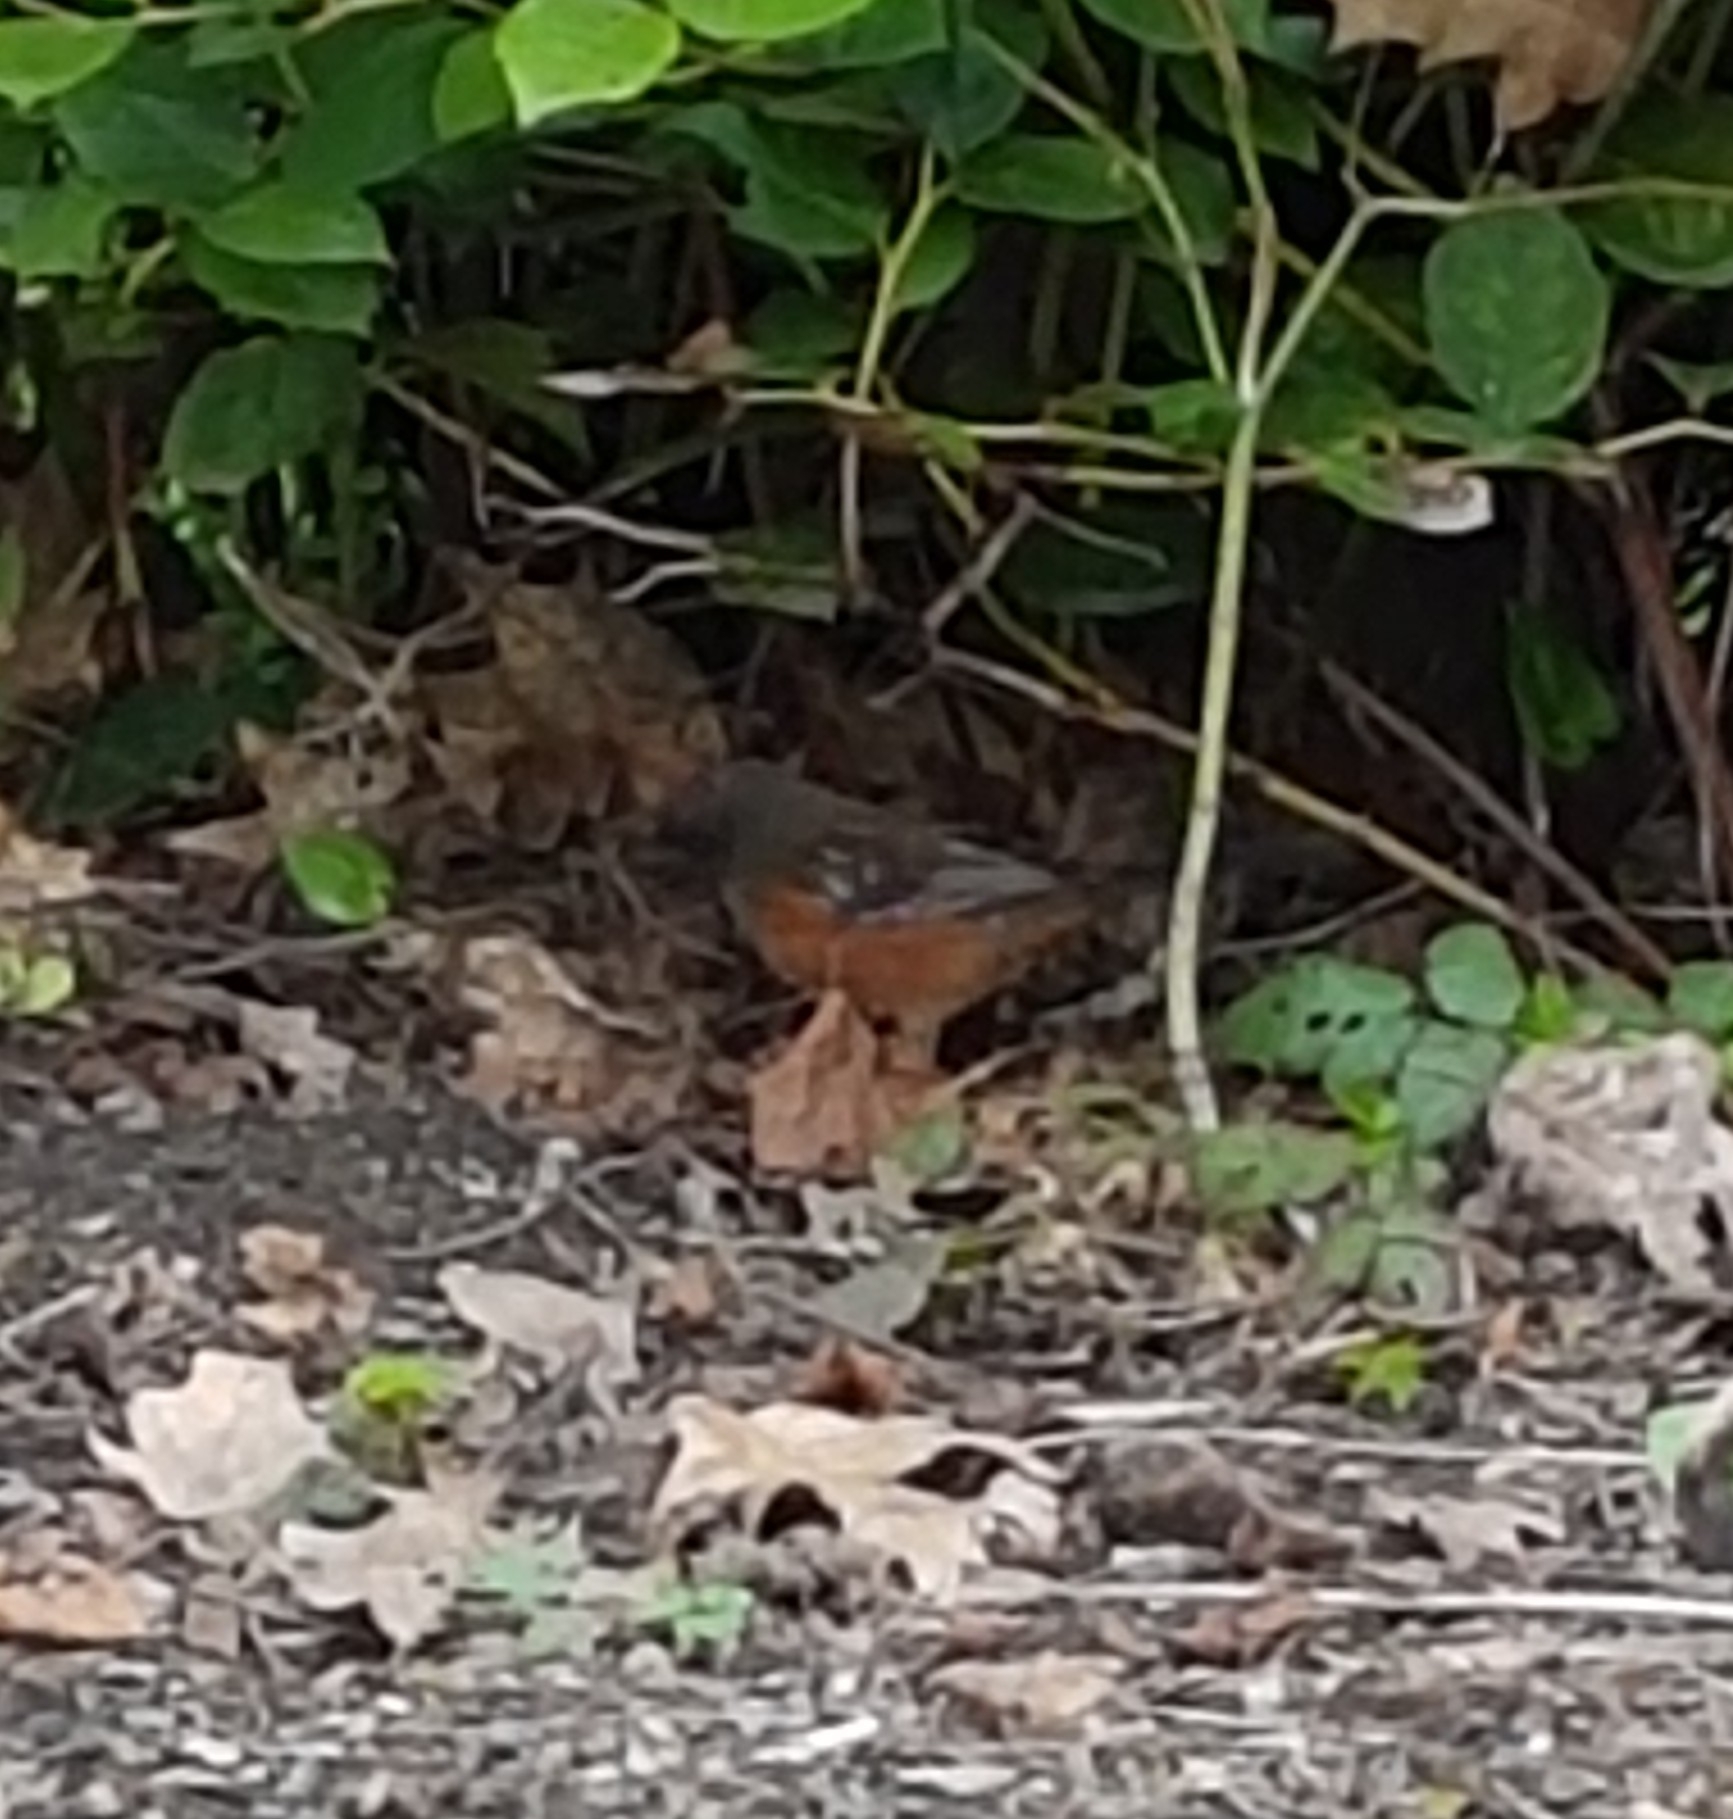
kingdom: Animalia
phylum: Chordata
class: Aves
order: Passeriformes
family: Passerellidae
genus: Pipilo
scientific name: Pipilo maculatus
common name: Spotted towhee
